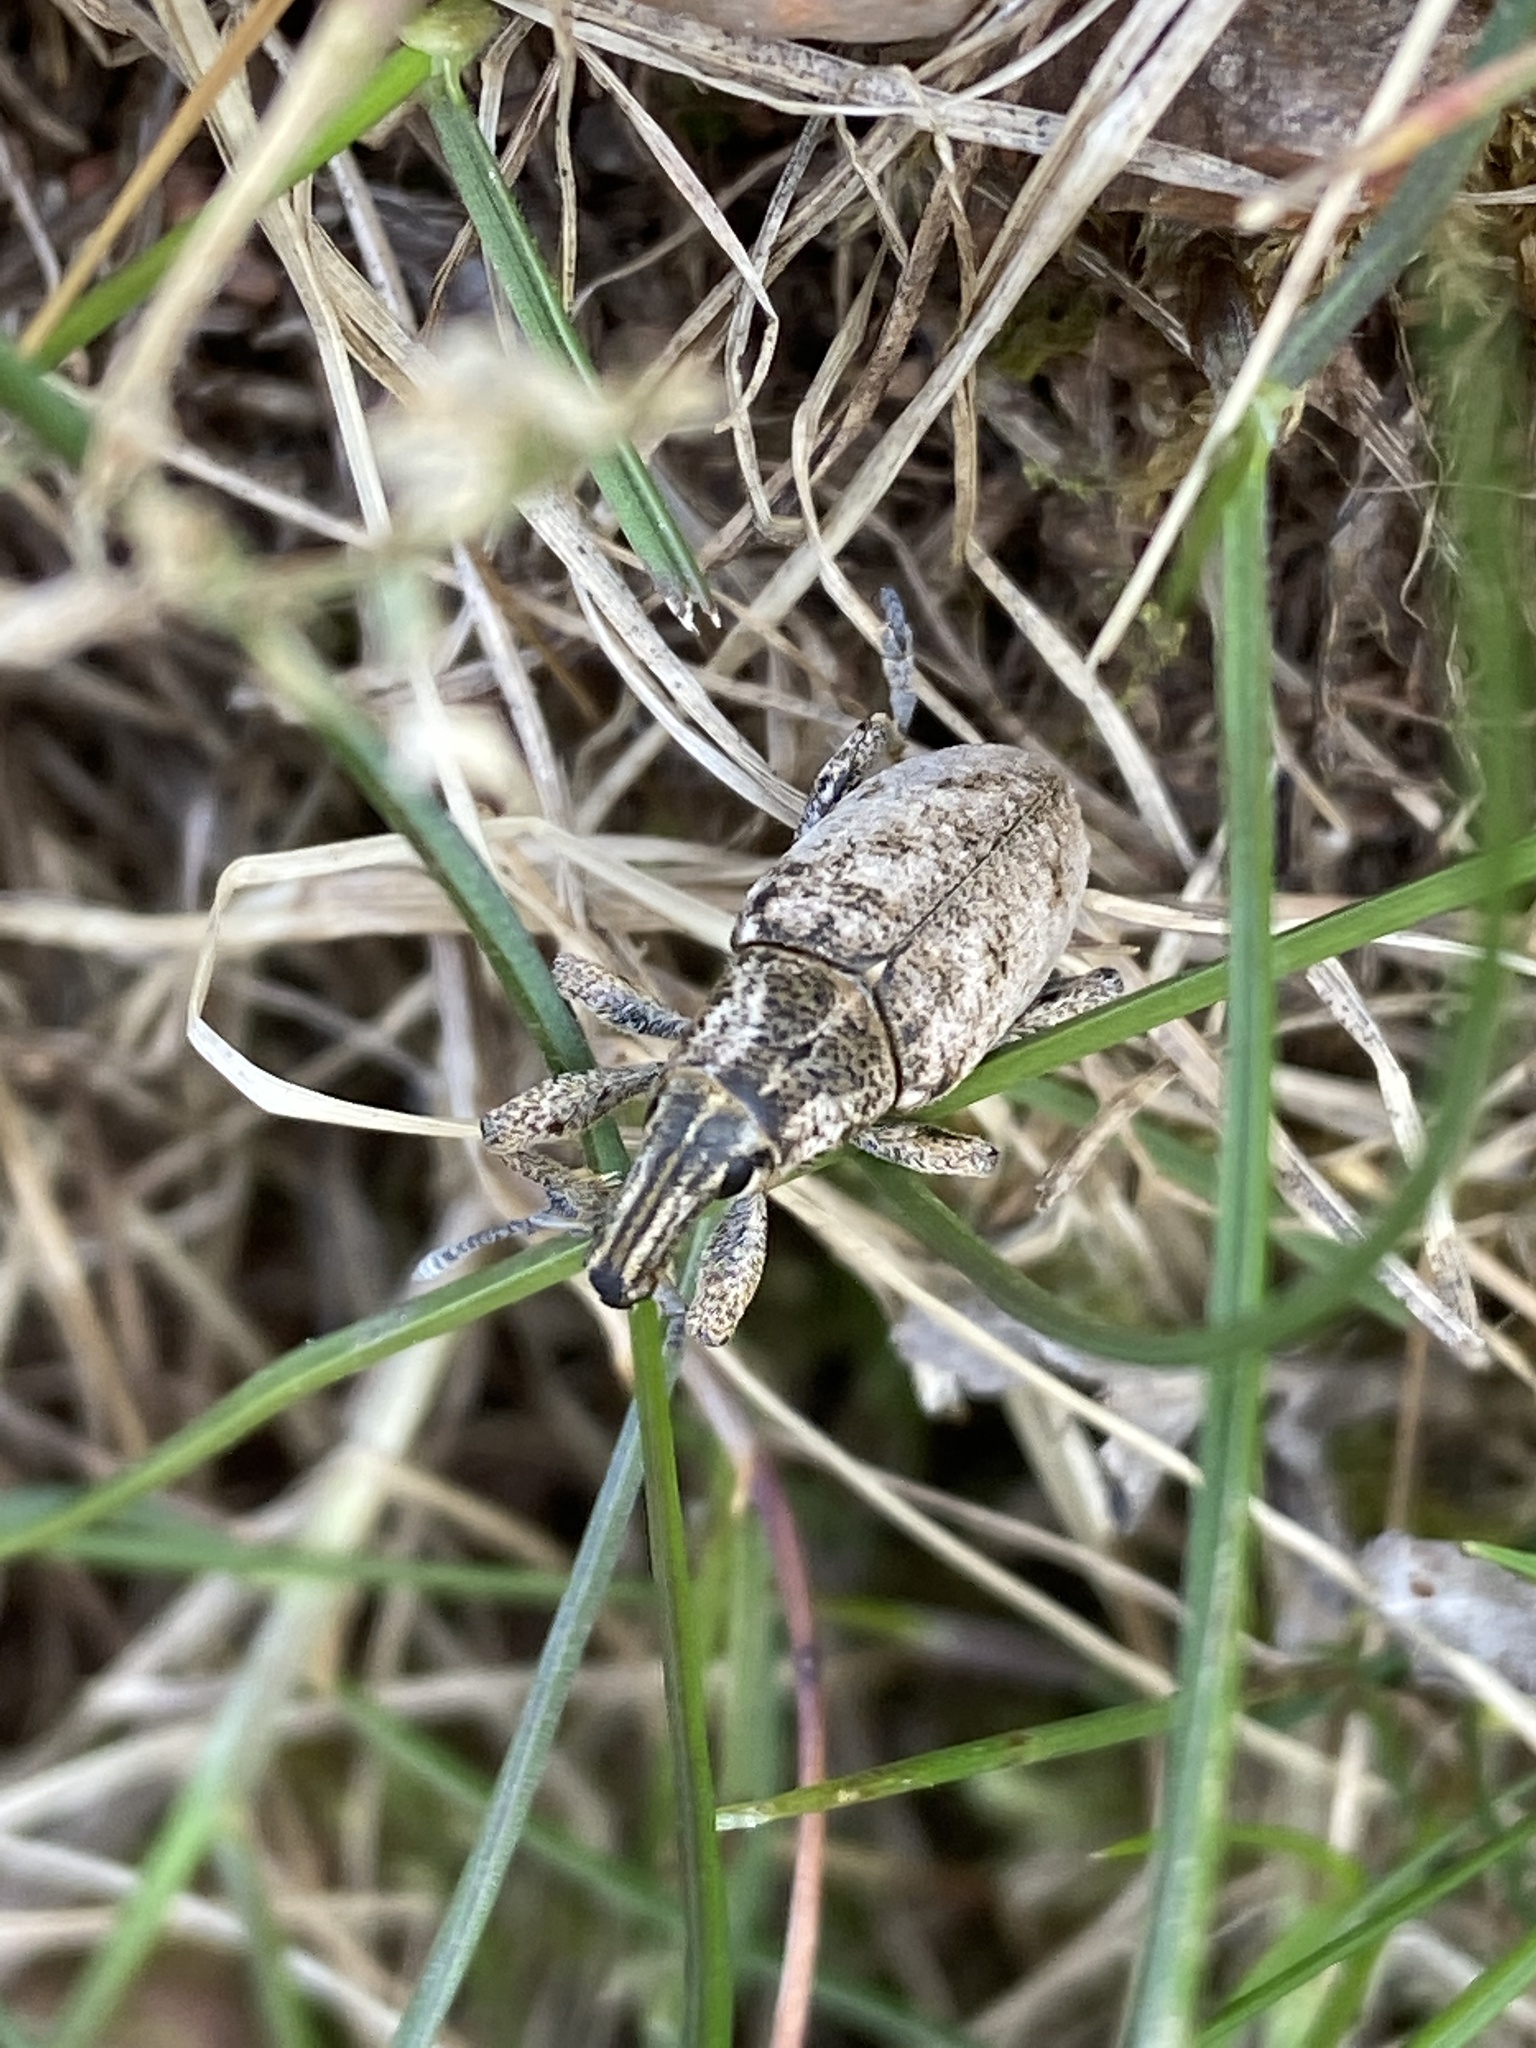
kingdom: Animalia
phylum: Arthropoda
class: Insecta
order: Coleoptera
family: Curculionidae
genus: Cleonis
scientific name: Cleonis pigra
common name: Large thistle weevil
